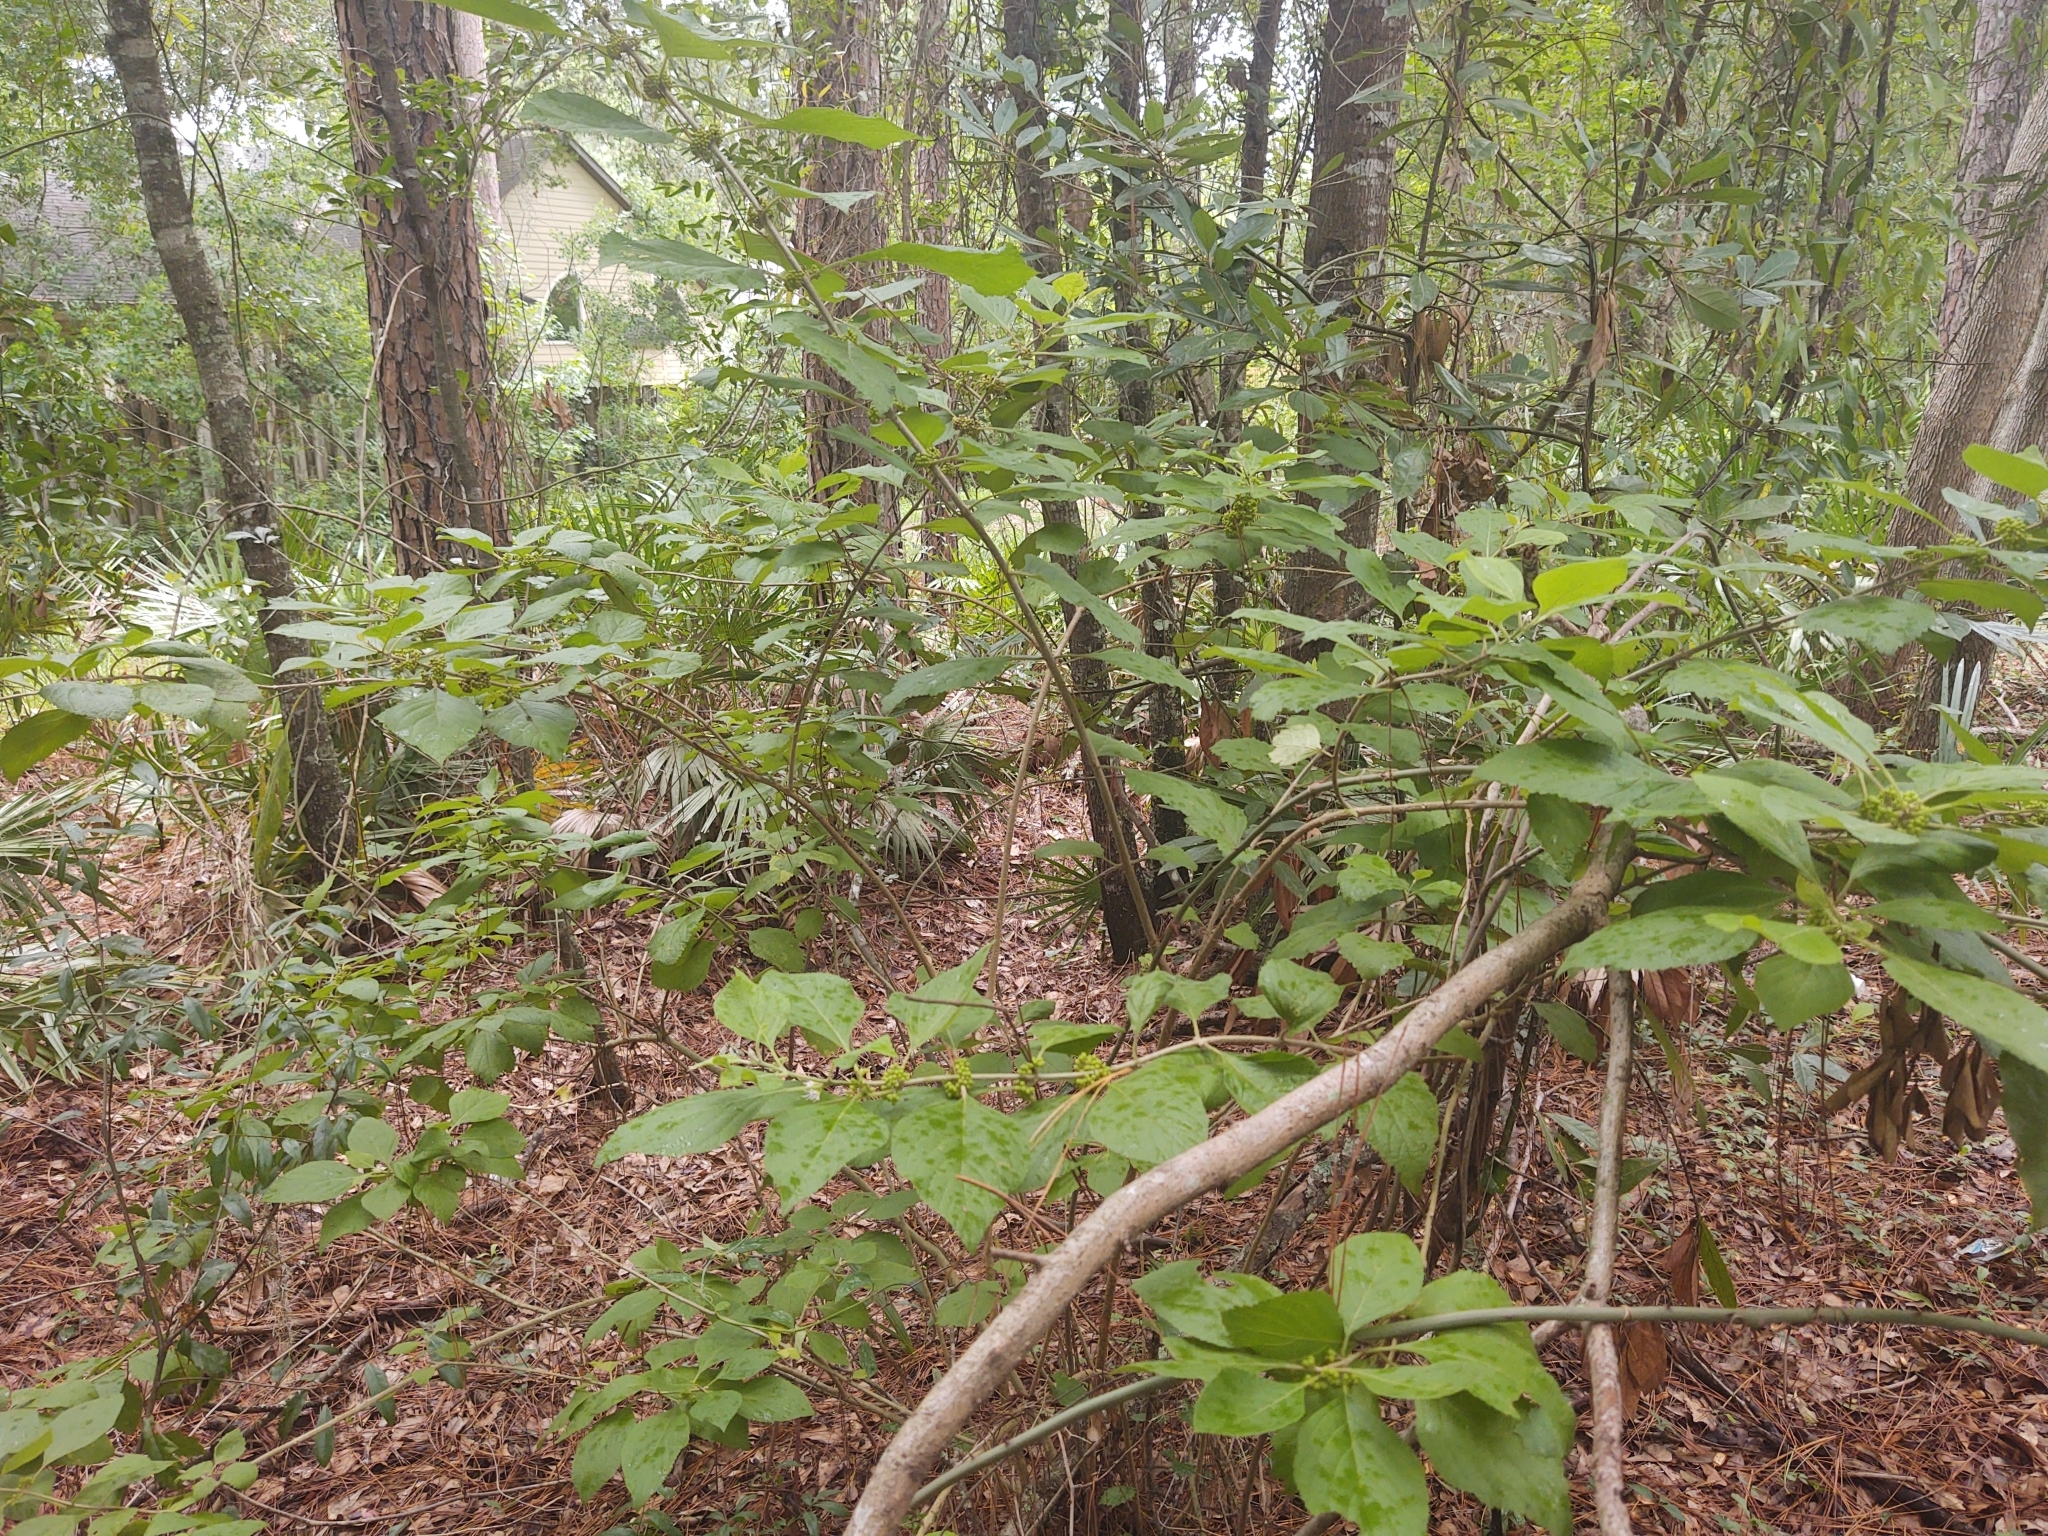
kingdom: Plantae
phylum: Tracheophyta
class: Magnoliopsida
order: Lamiales
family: Lamiaceae
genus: Callicarpa
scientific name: Callicarpa americana
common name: American beautyberry
